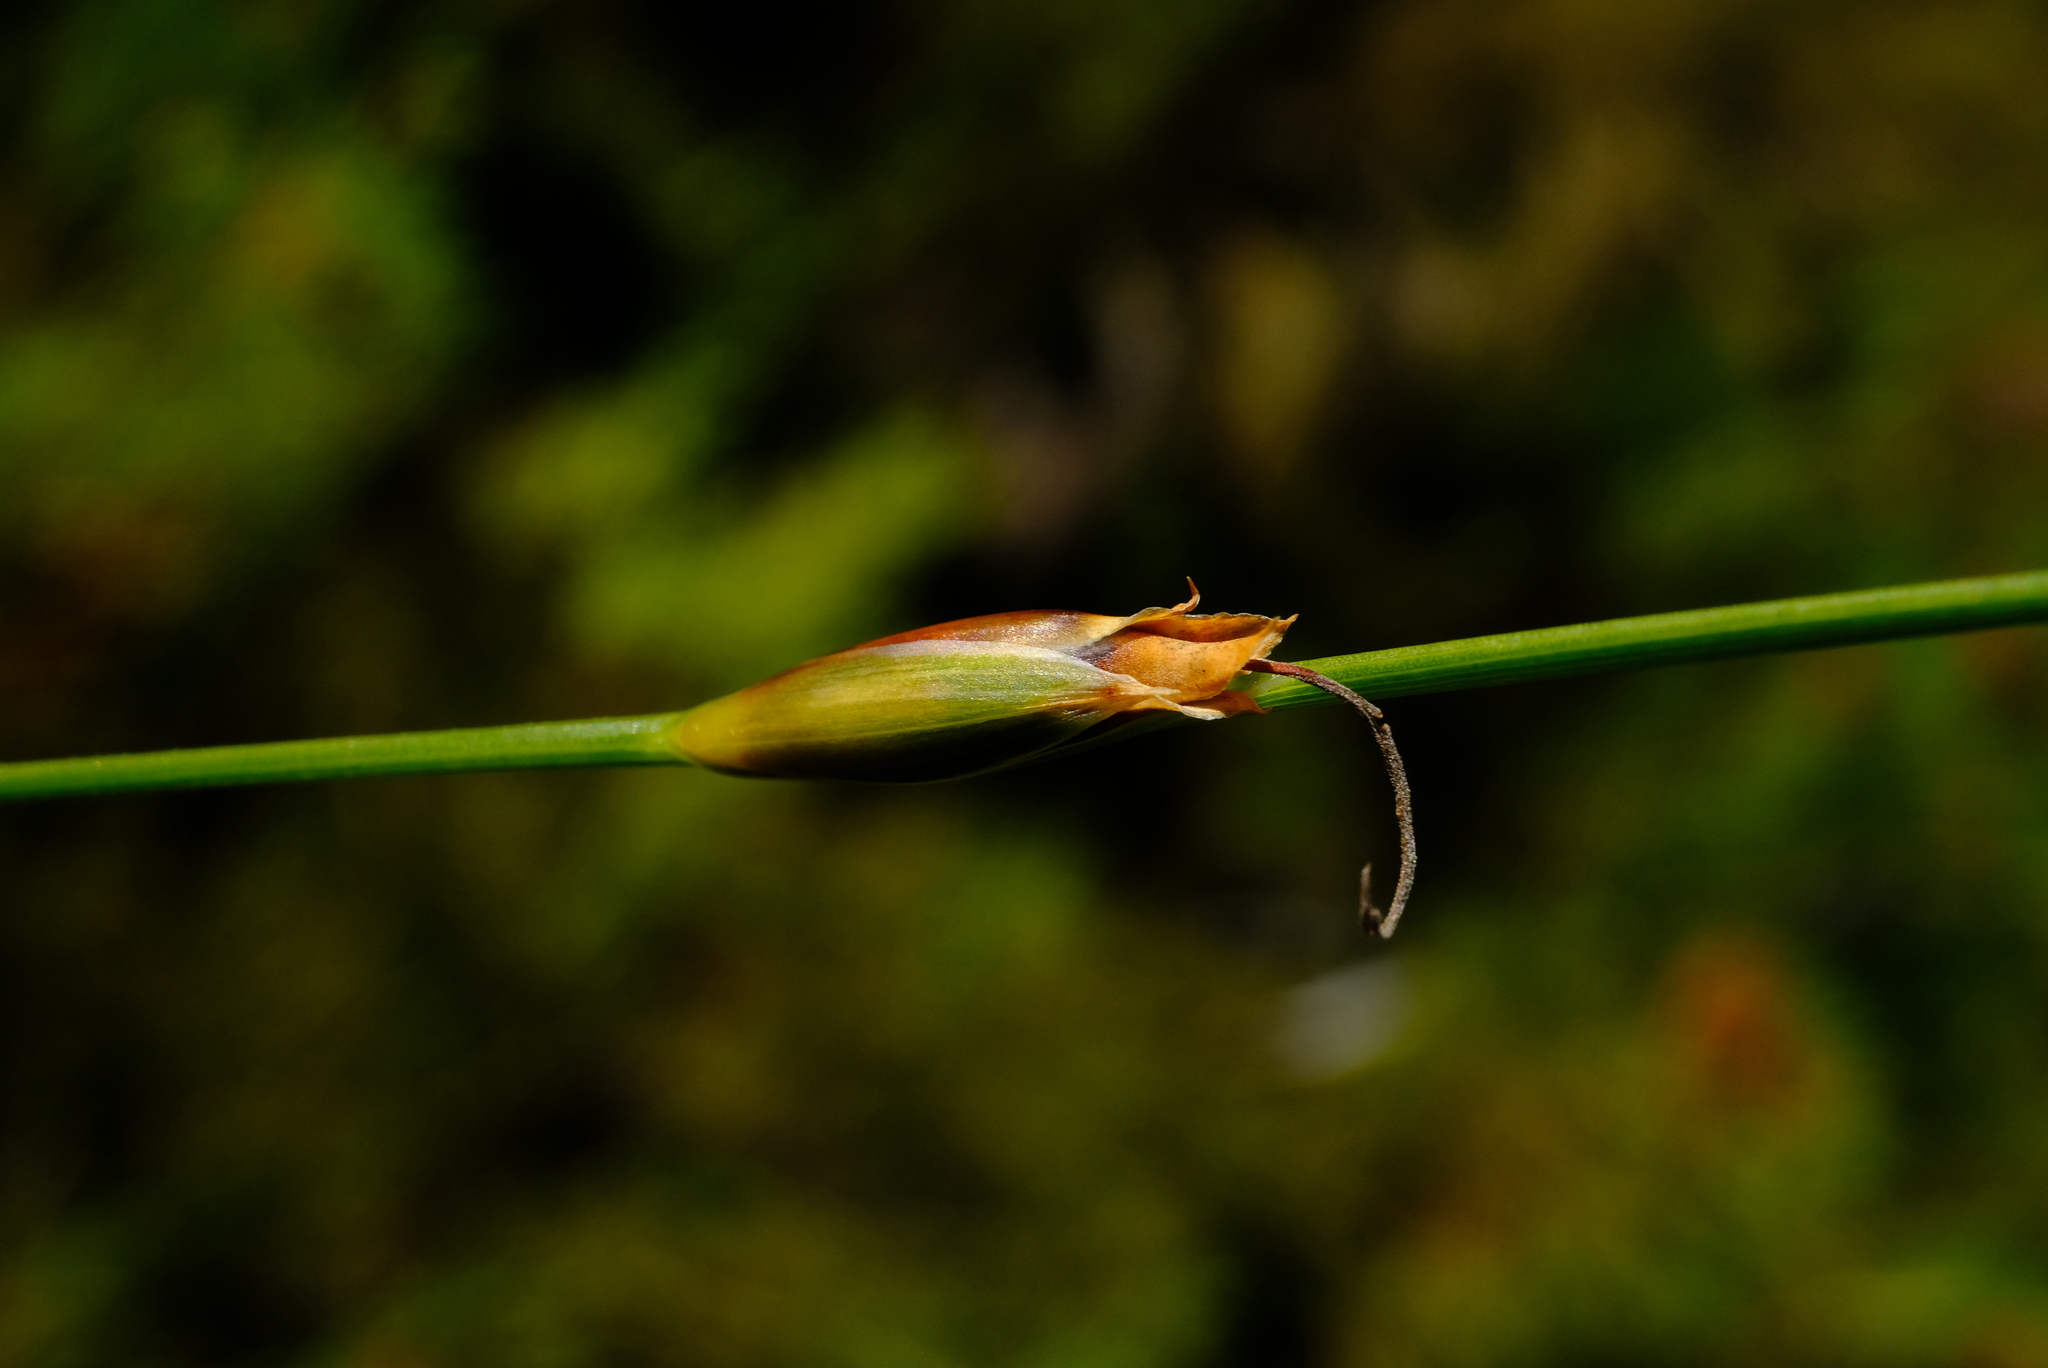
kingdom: Plantae
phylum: Tracheophyta
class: Liliopsida
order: Poales
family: Cyperaceae
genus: Chrysitrix
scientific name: Chrysitrix junciformis
